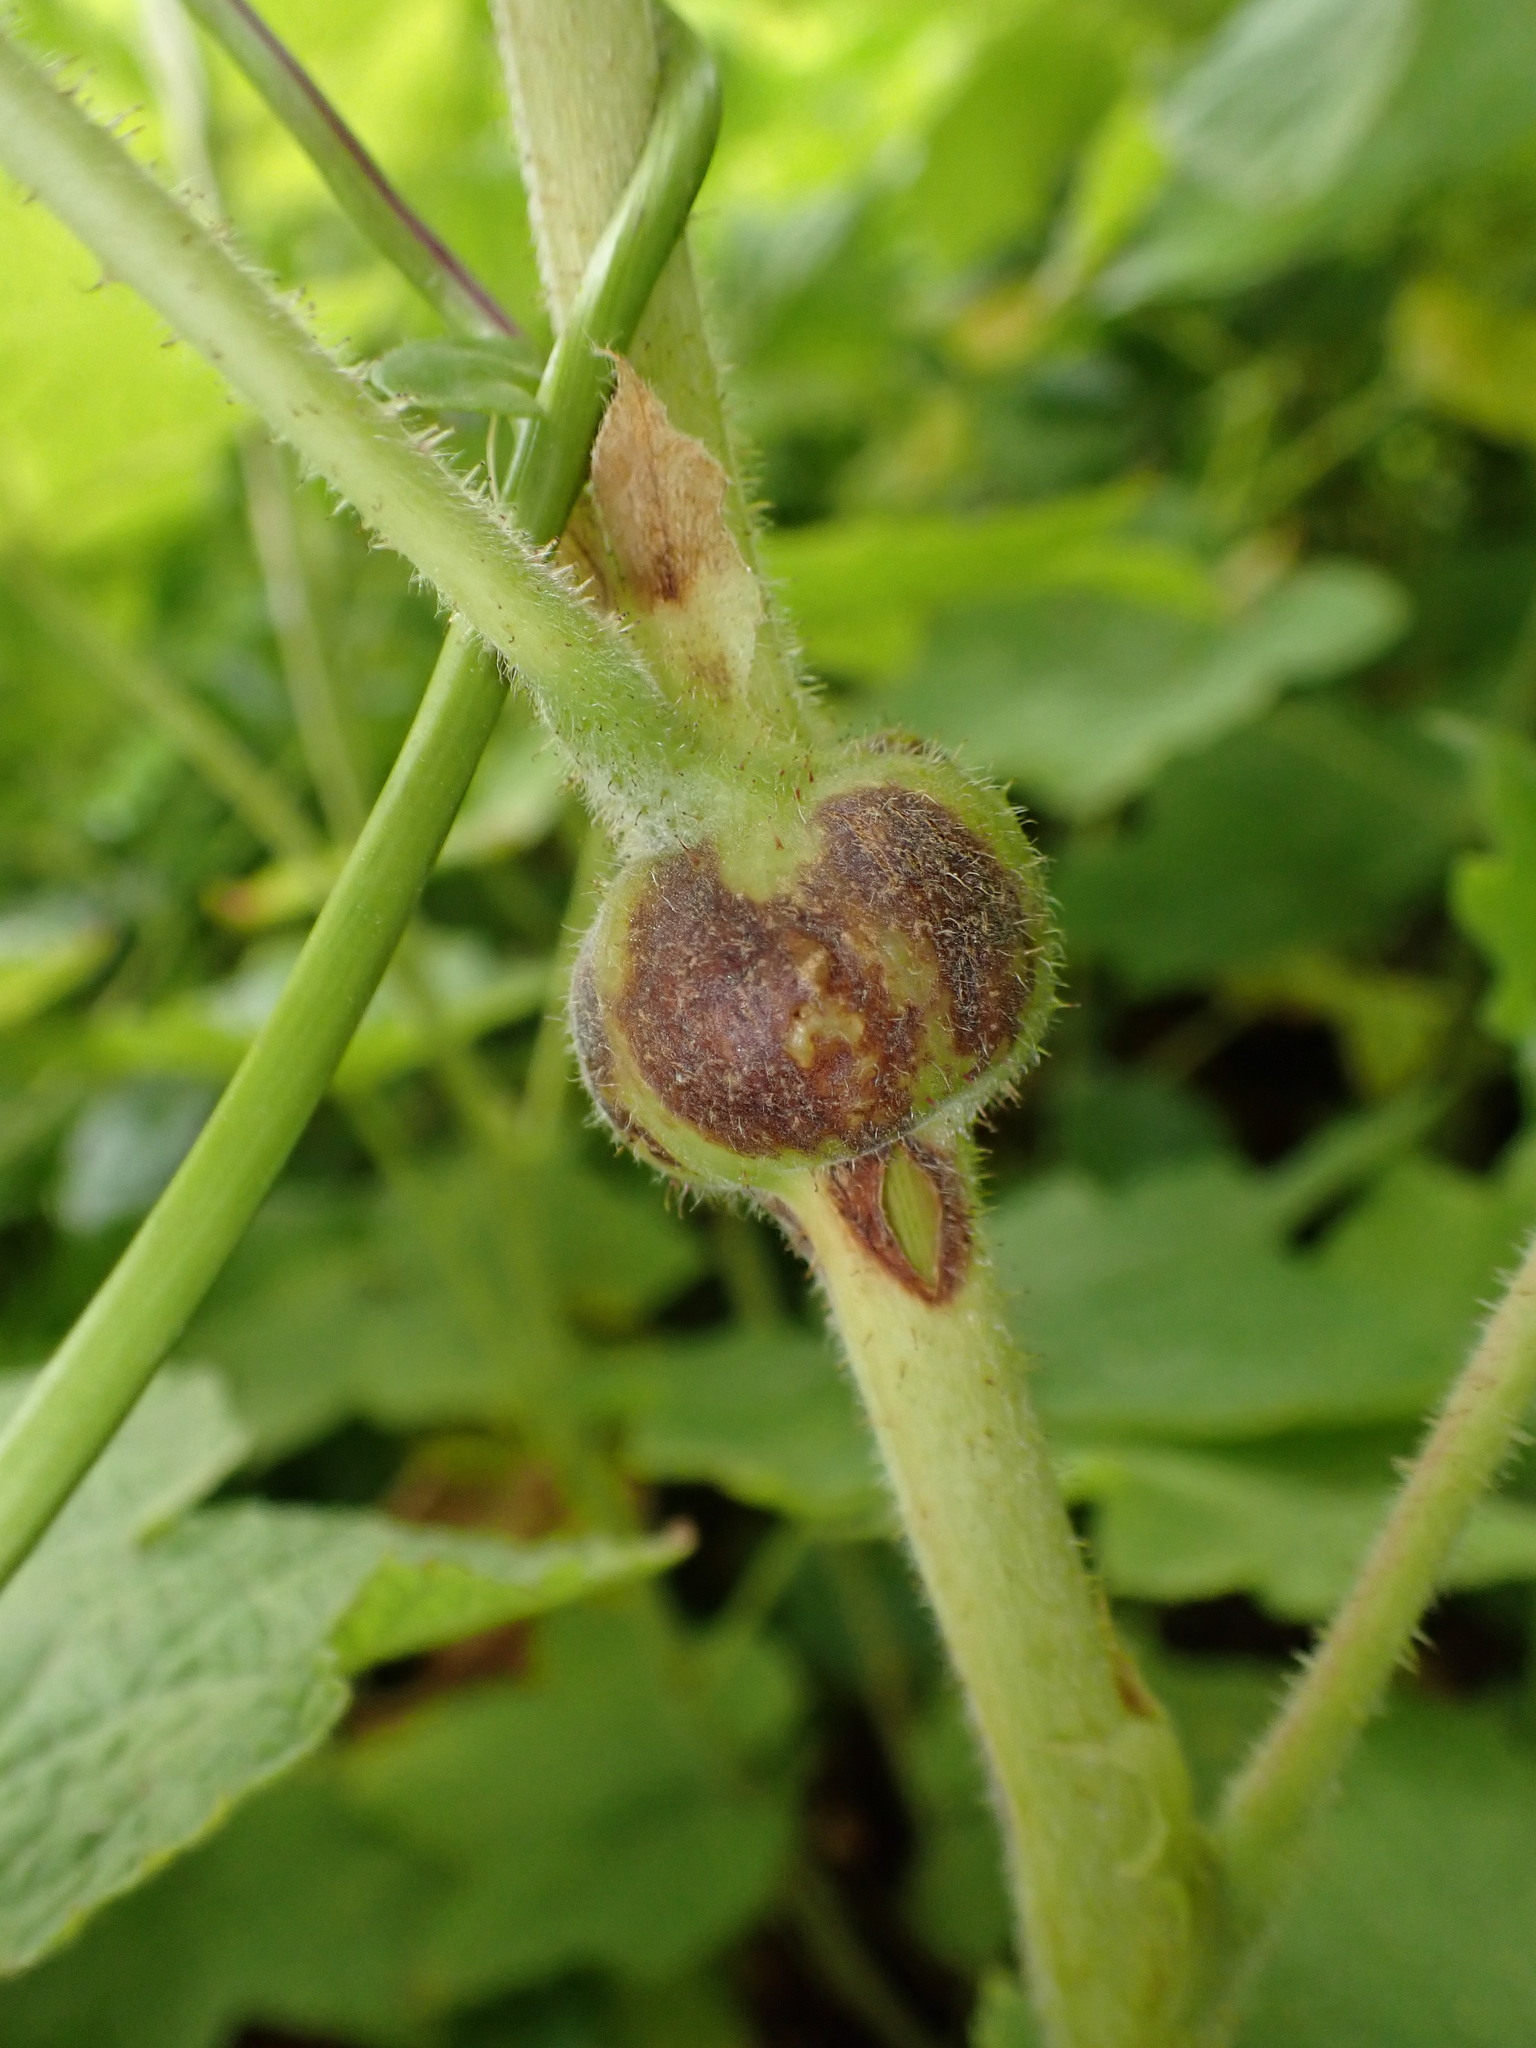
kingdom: Animalia
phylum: Arthropoda
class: Insecta
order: Hymenoptera
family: Cynipidae
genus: Diastrophus
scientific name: Diastrophus
